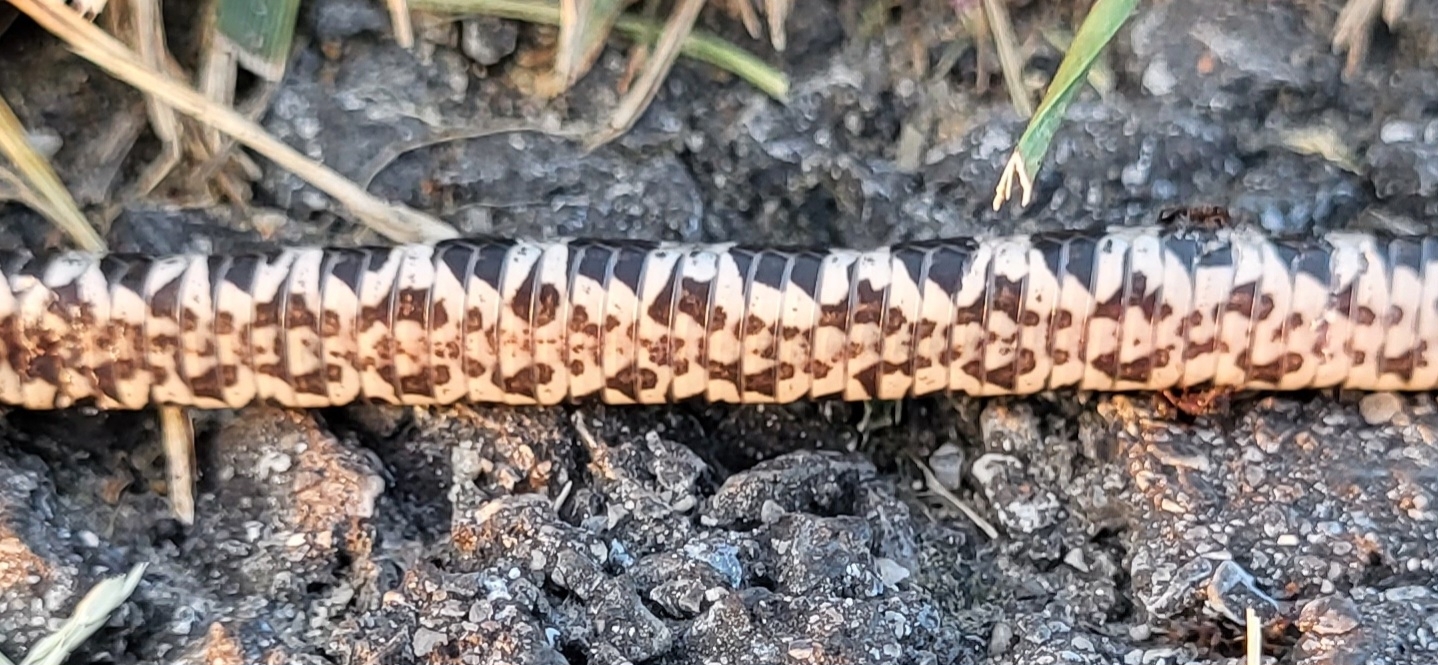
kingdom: Animalia
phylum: Chordata
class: Squamata
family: Colubridae
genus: Nerodia
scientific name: Nerodia sipedon
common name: Northern water snake
